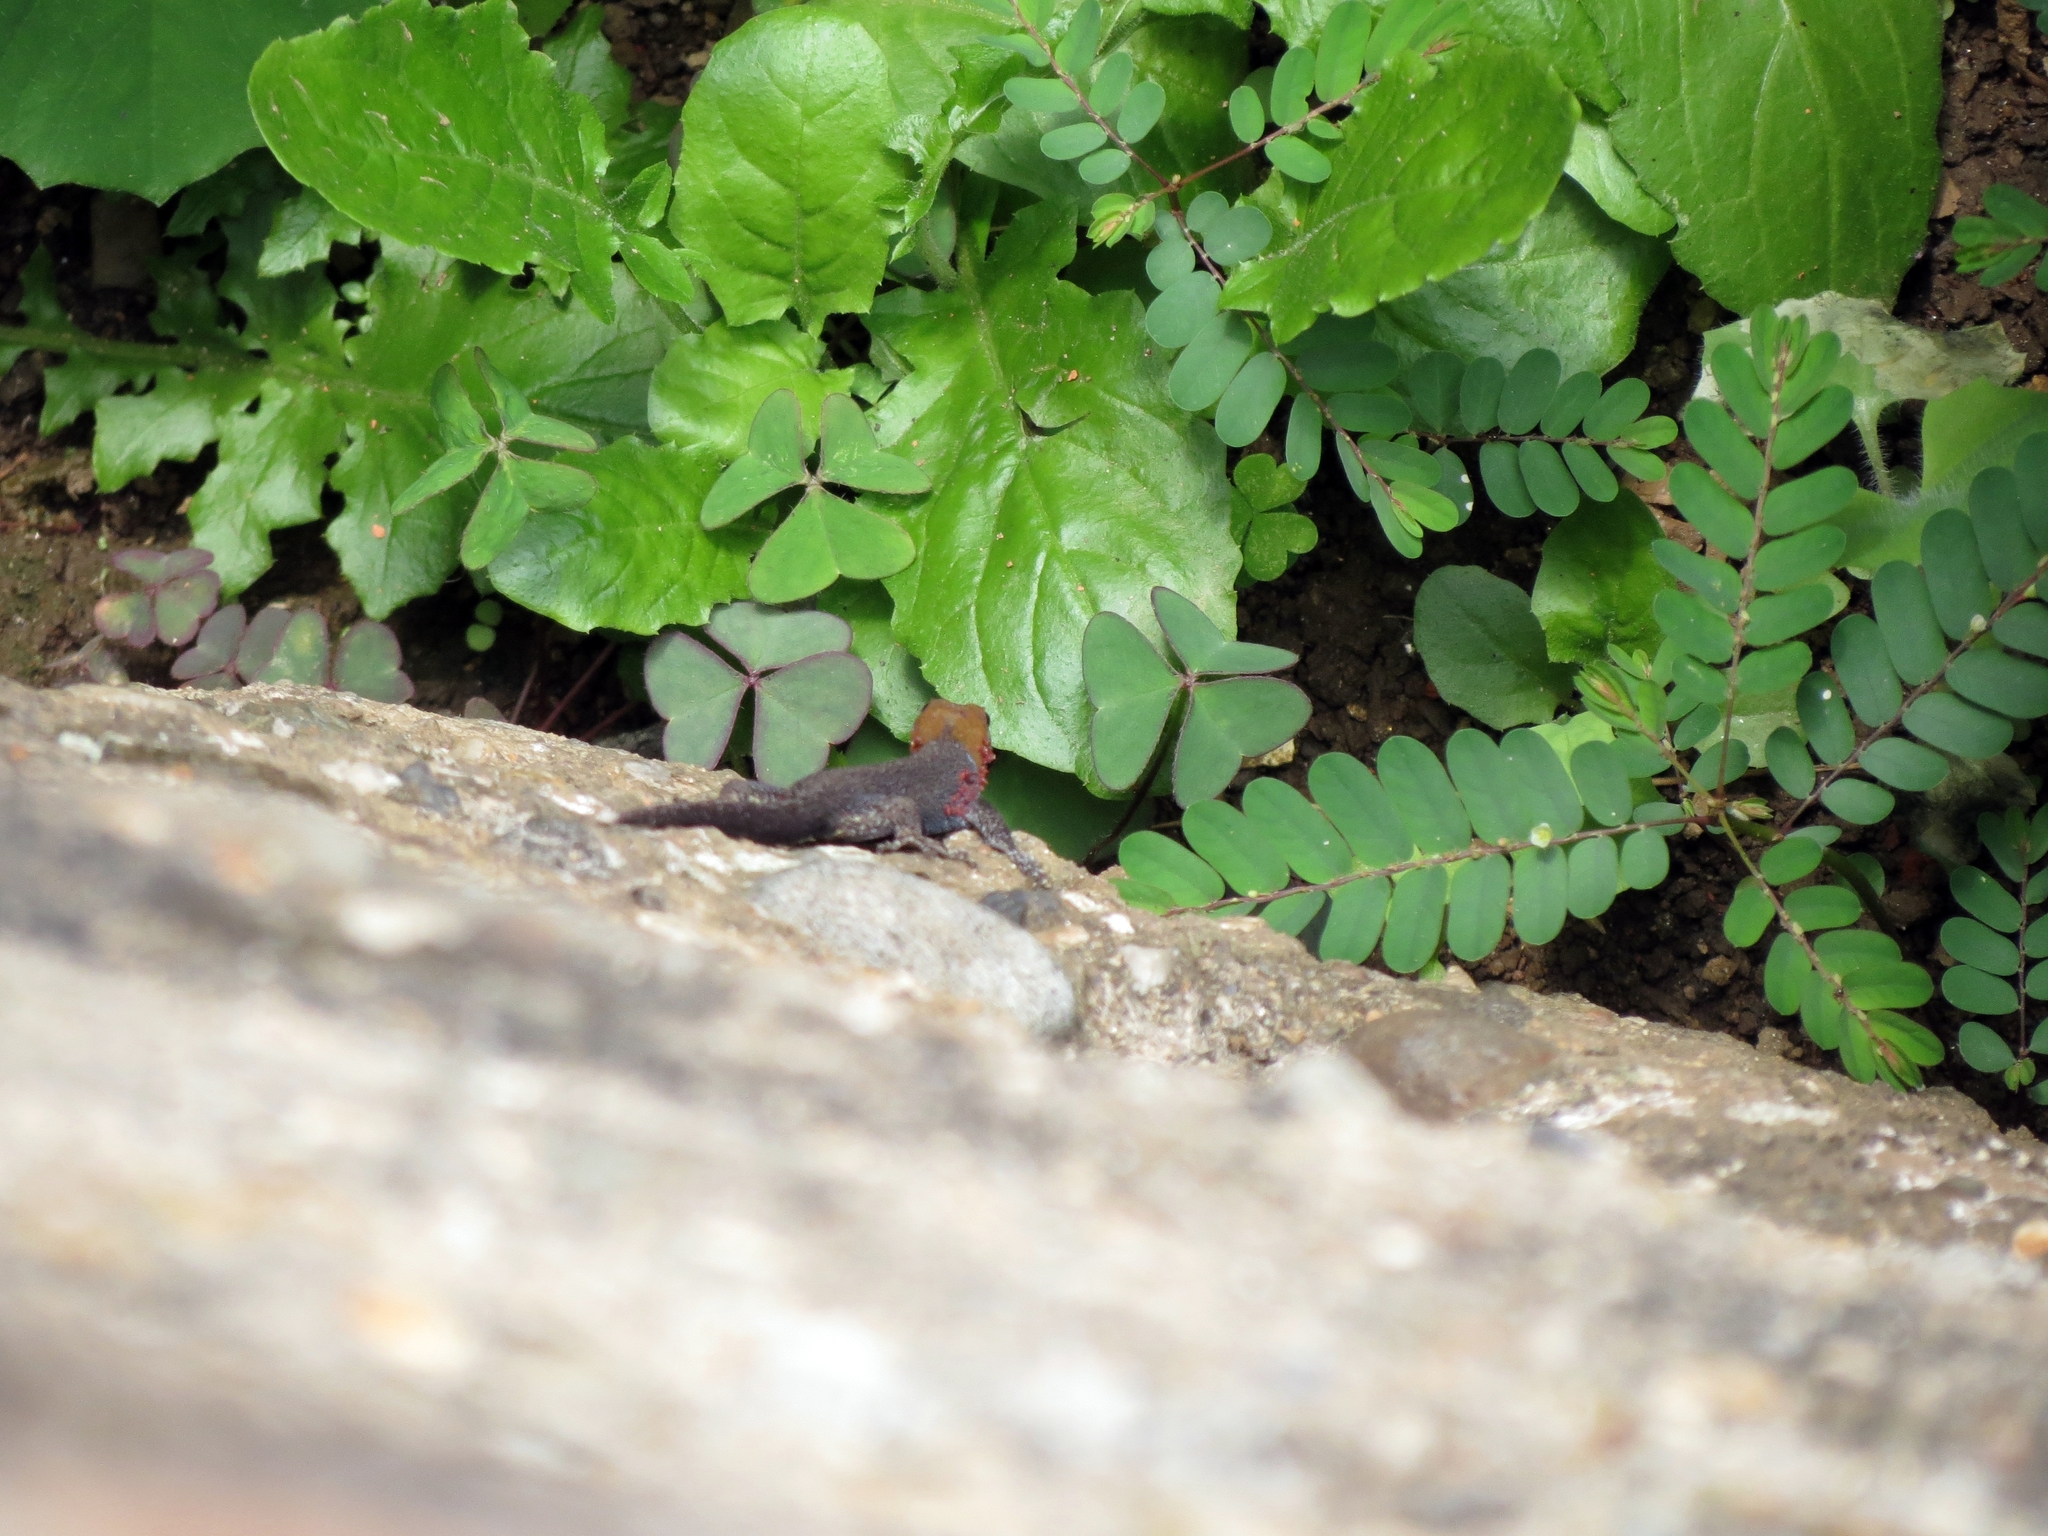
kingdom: Animalia
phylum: Chordata
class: Squamata
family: Sphaerodactylidae
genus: Gonatodes
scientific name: Gonatodes albogularis
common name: Yellow-headed gecko
